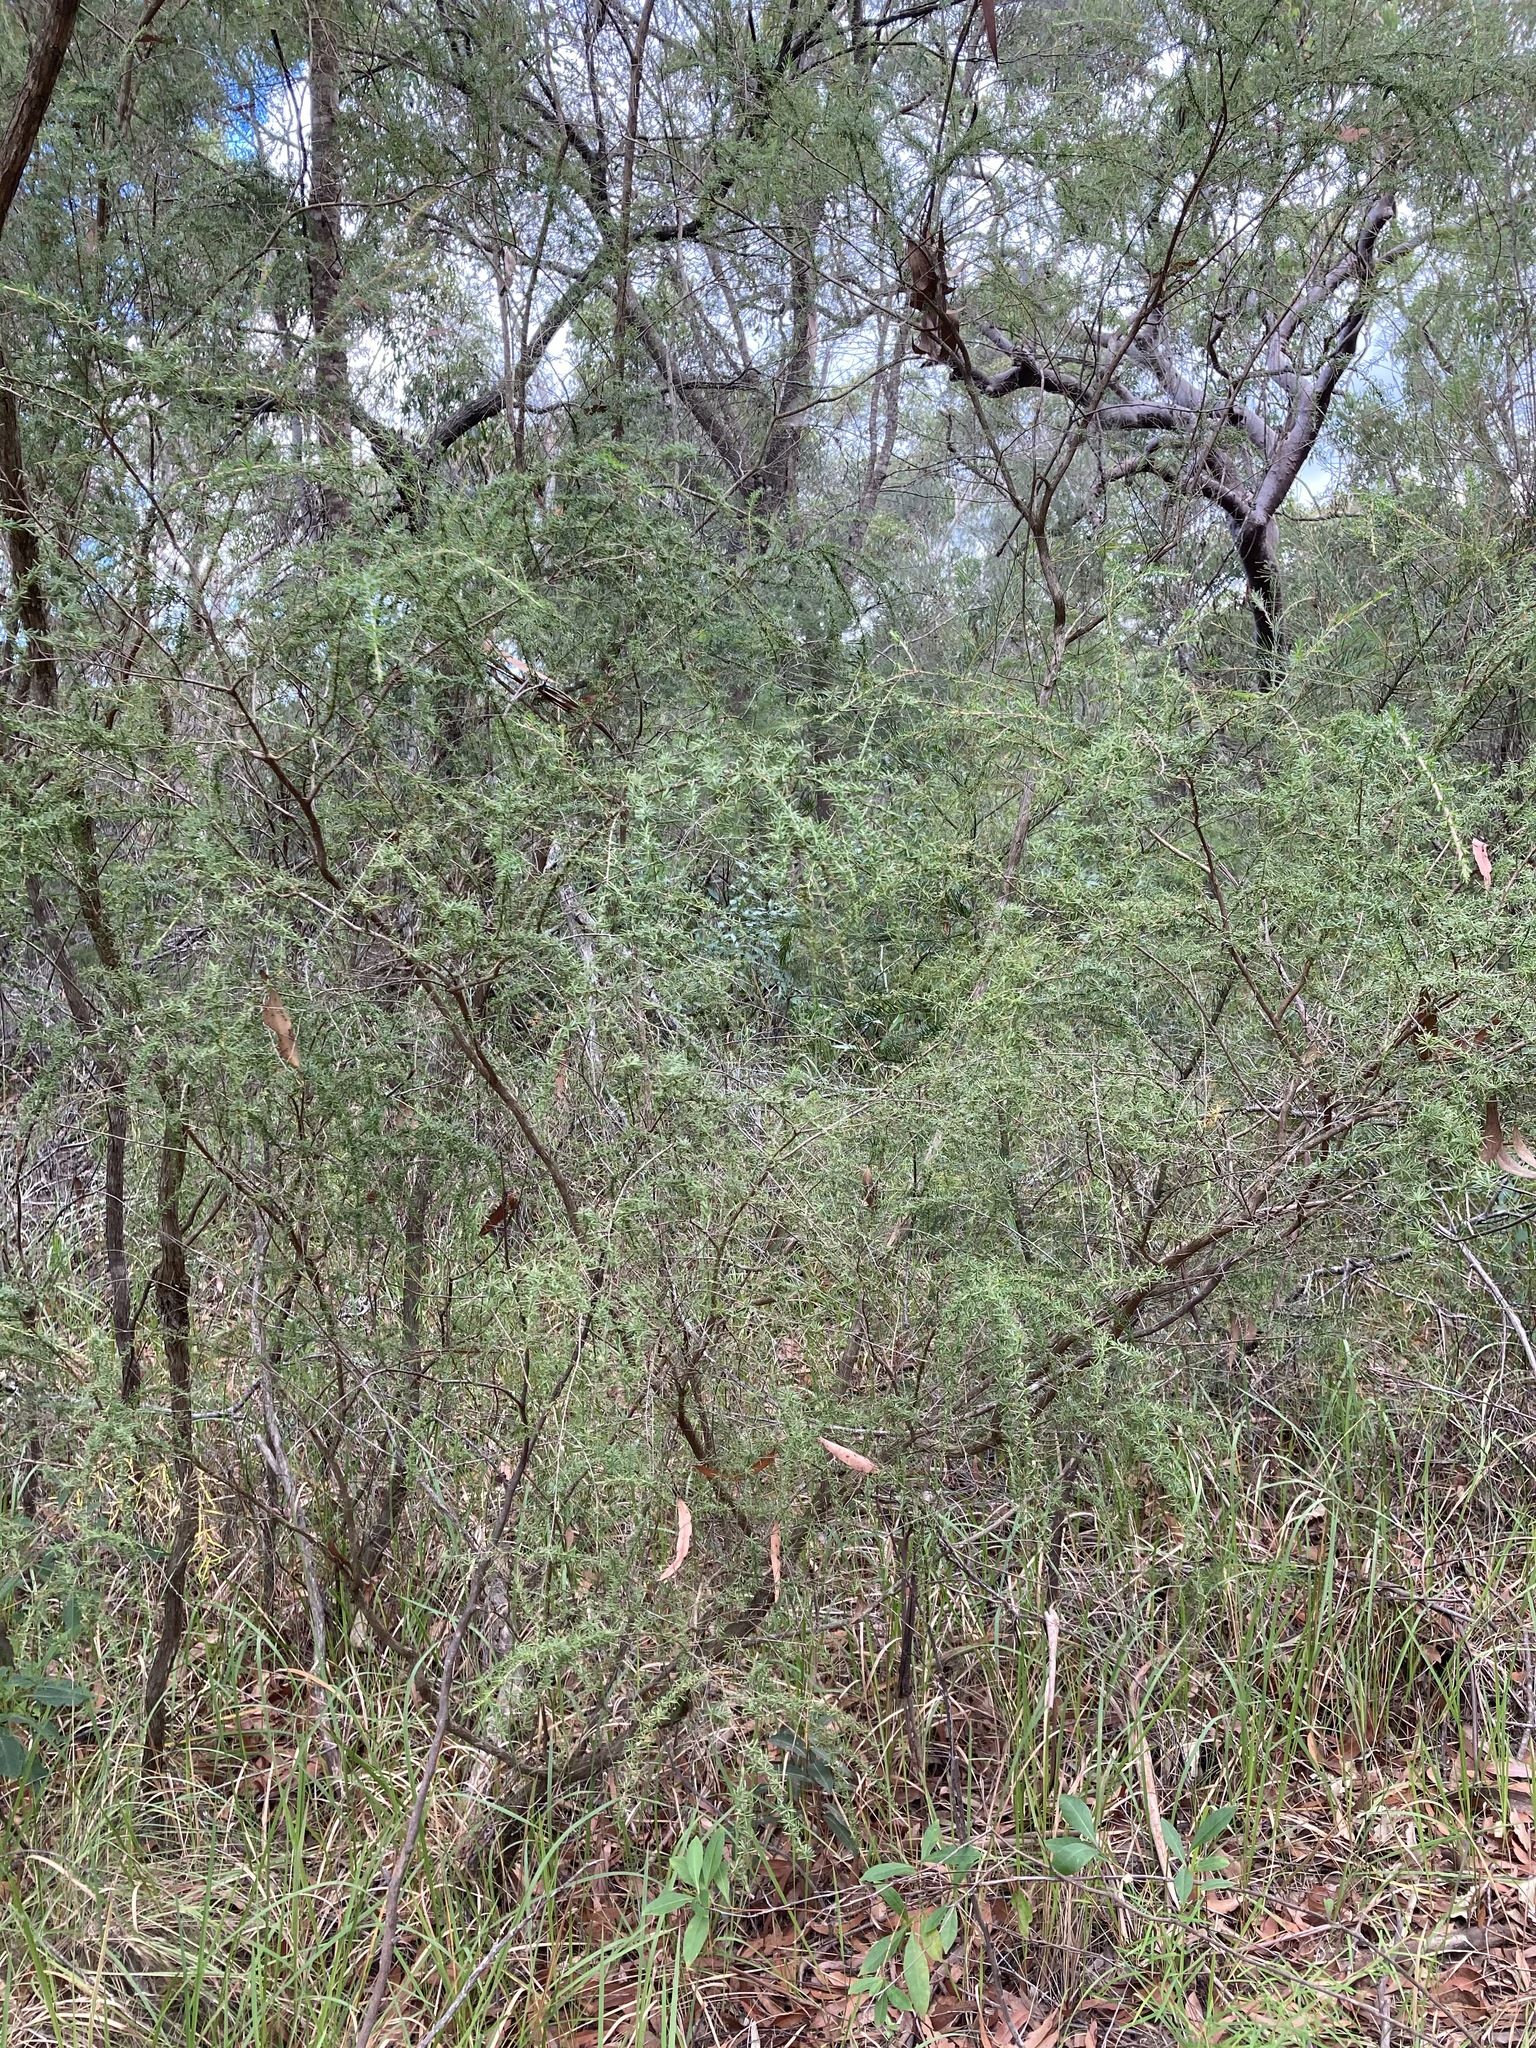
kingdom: Plantae
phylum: Tracheophyta
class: Magnoliopsida
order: Myrtales
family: Myrtaceae
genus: Kunzea
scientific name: Kunzea ambigua
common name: Tickbush
